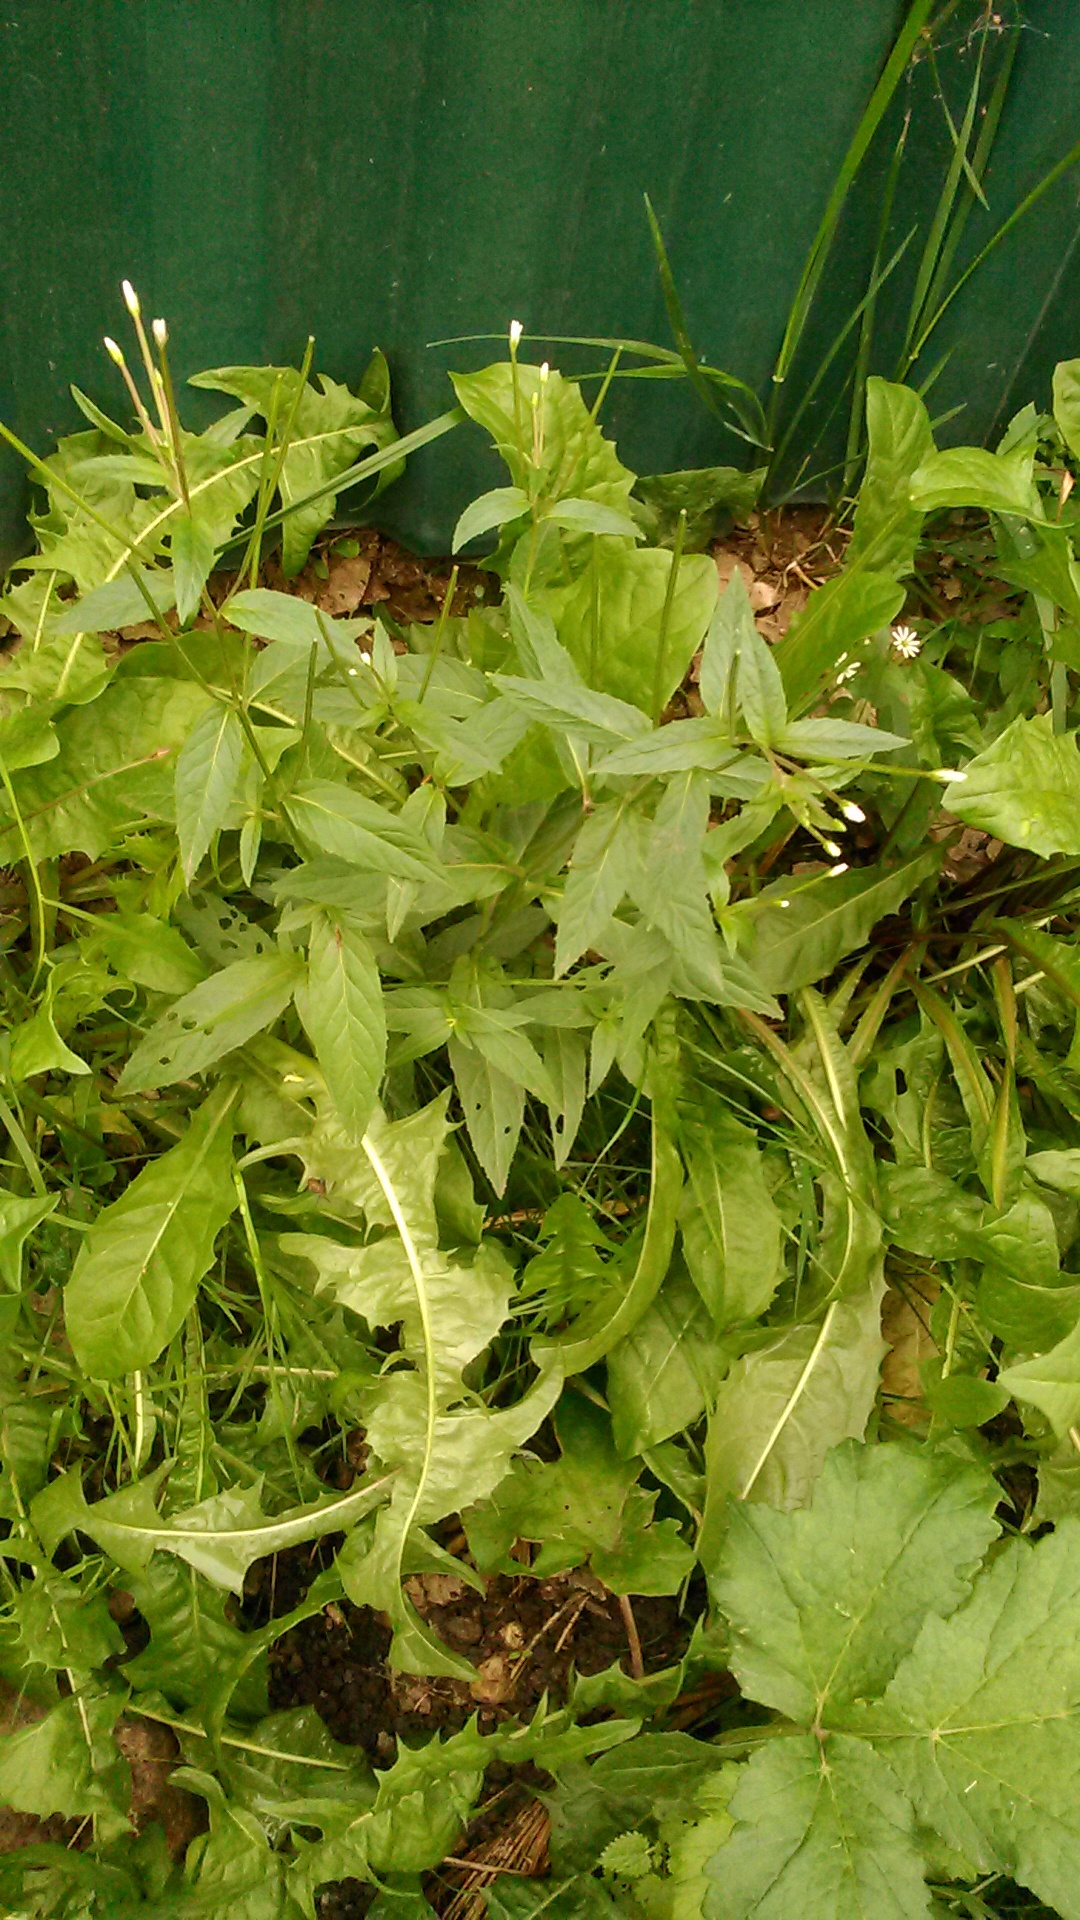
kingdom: Plantae
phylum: Tracheophyta
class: Magnoliopsida
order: Myrtales
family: Onagraceae
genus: Epilobium
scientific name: Epilobium pseudorubescens
